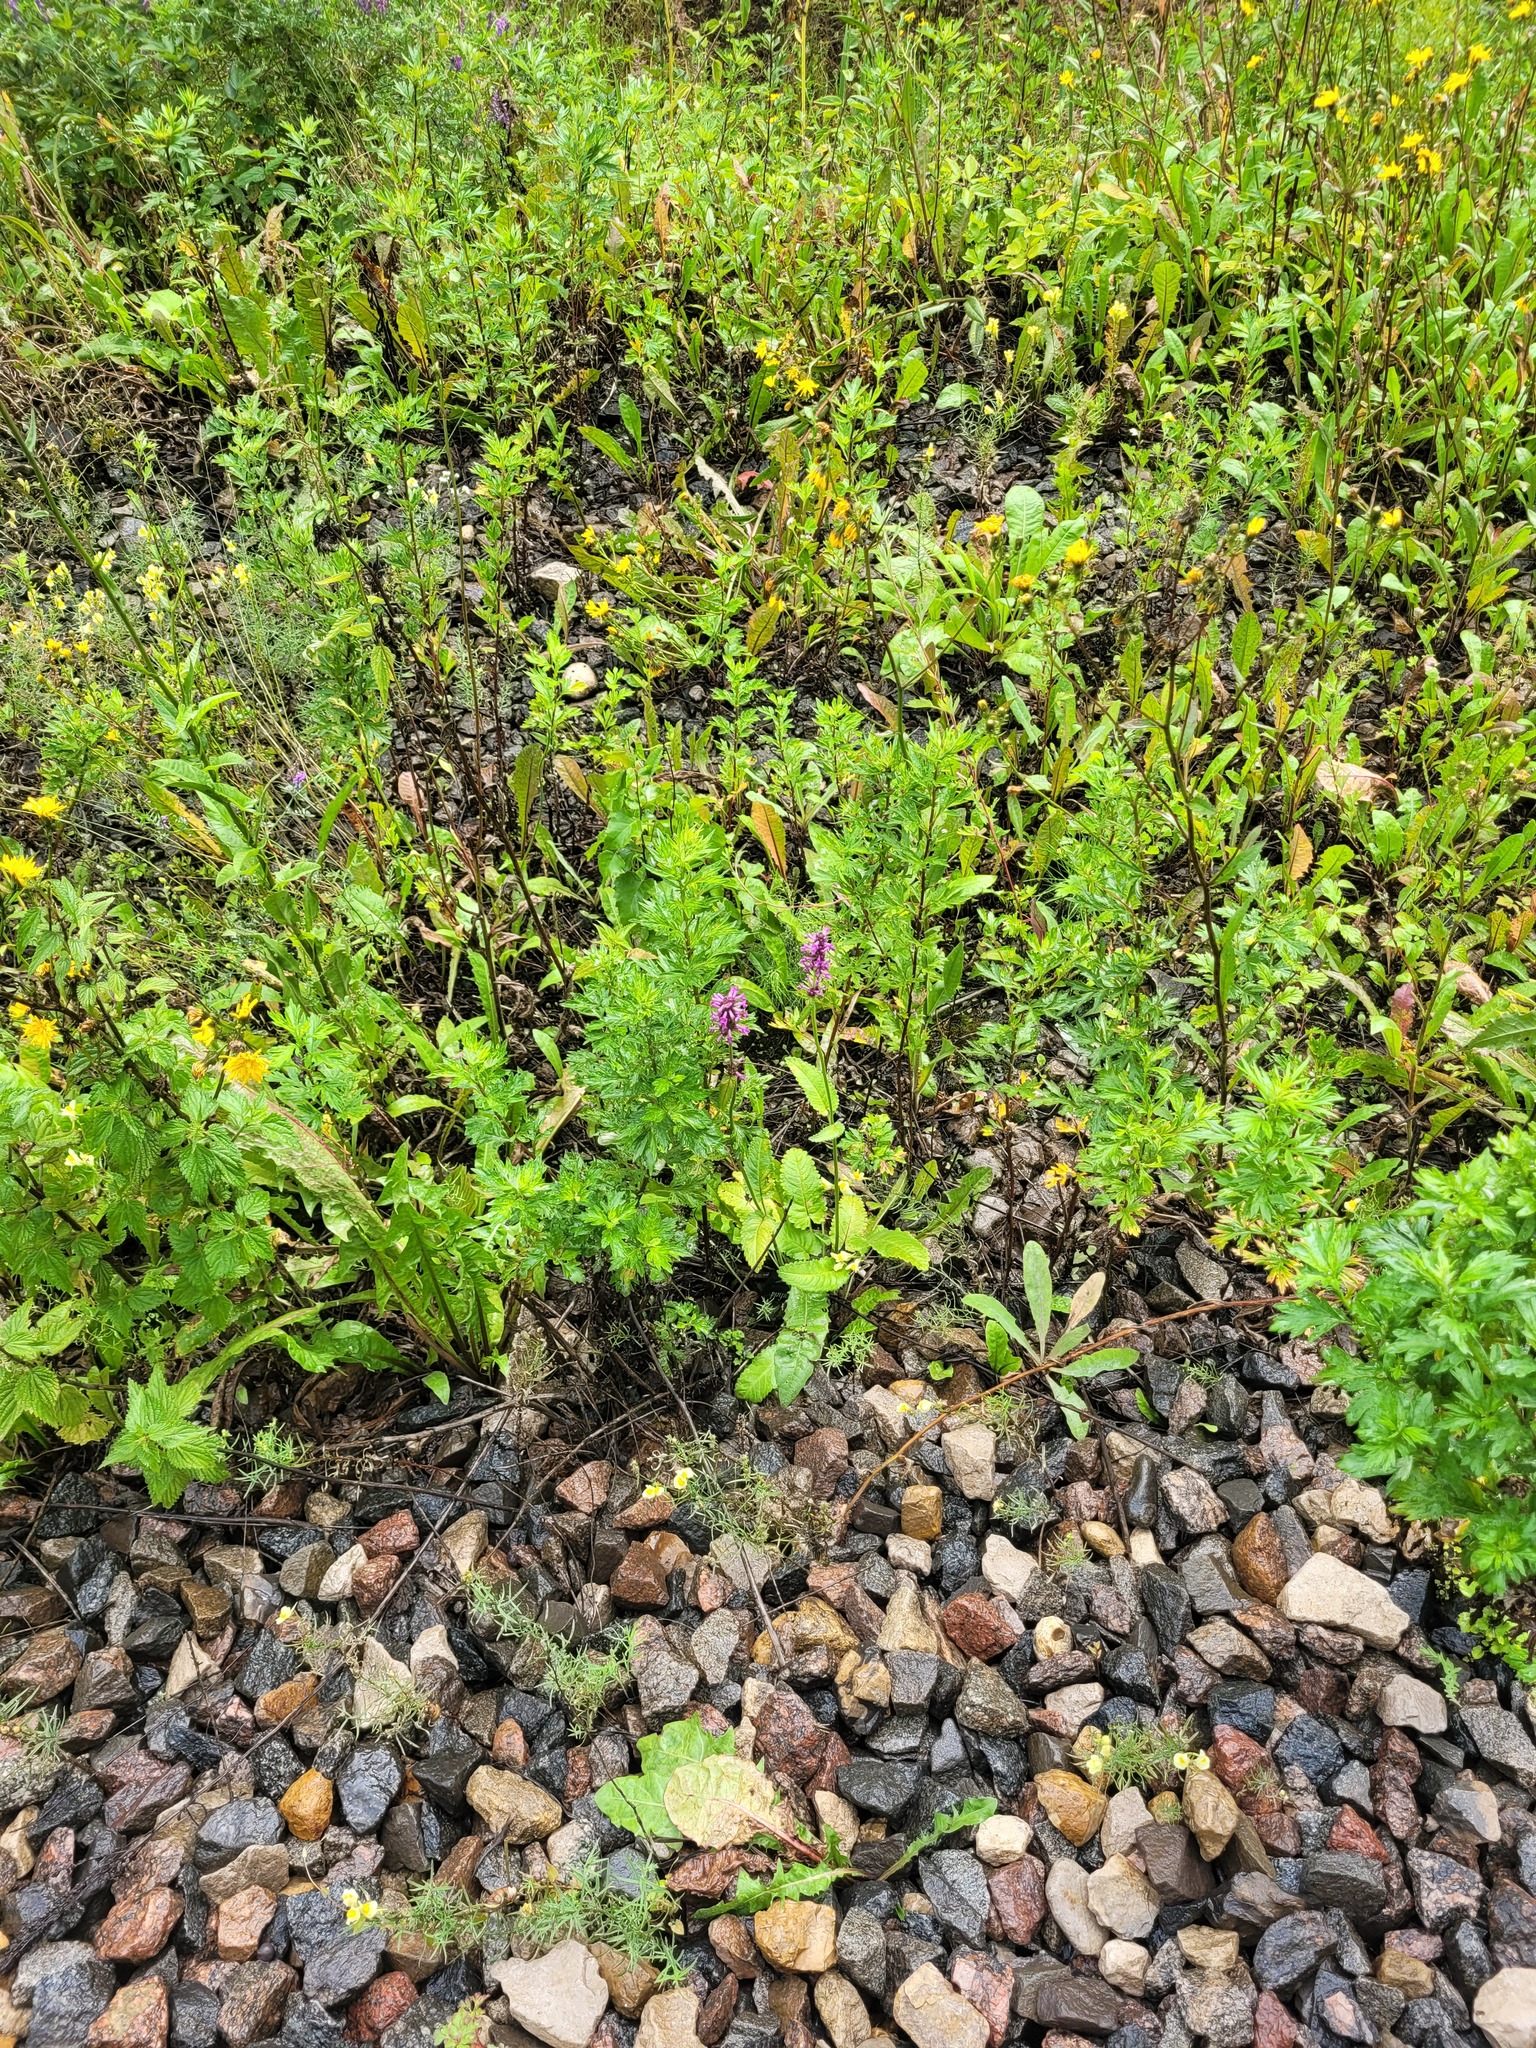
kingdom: Plantae
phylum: Tracheophyta
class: Magnoliopsida
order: Lamiales
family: Lamiaceae
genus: Betonica
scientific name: Betonica officinalis
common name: Bishop's-wort
